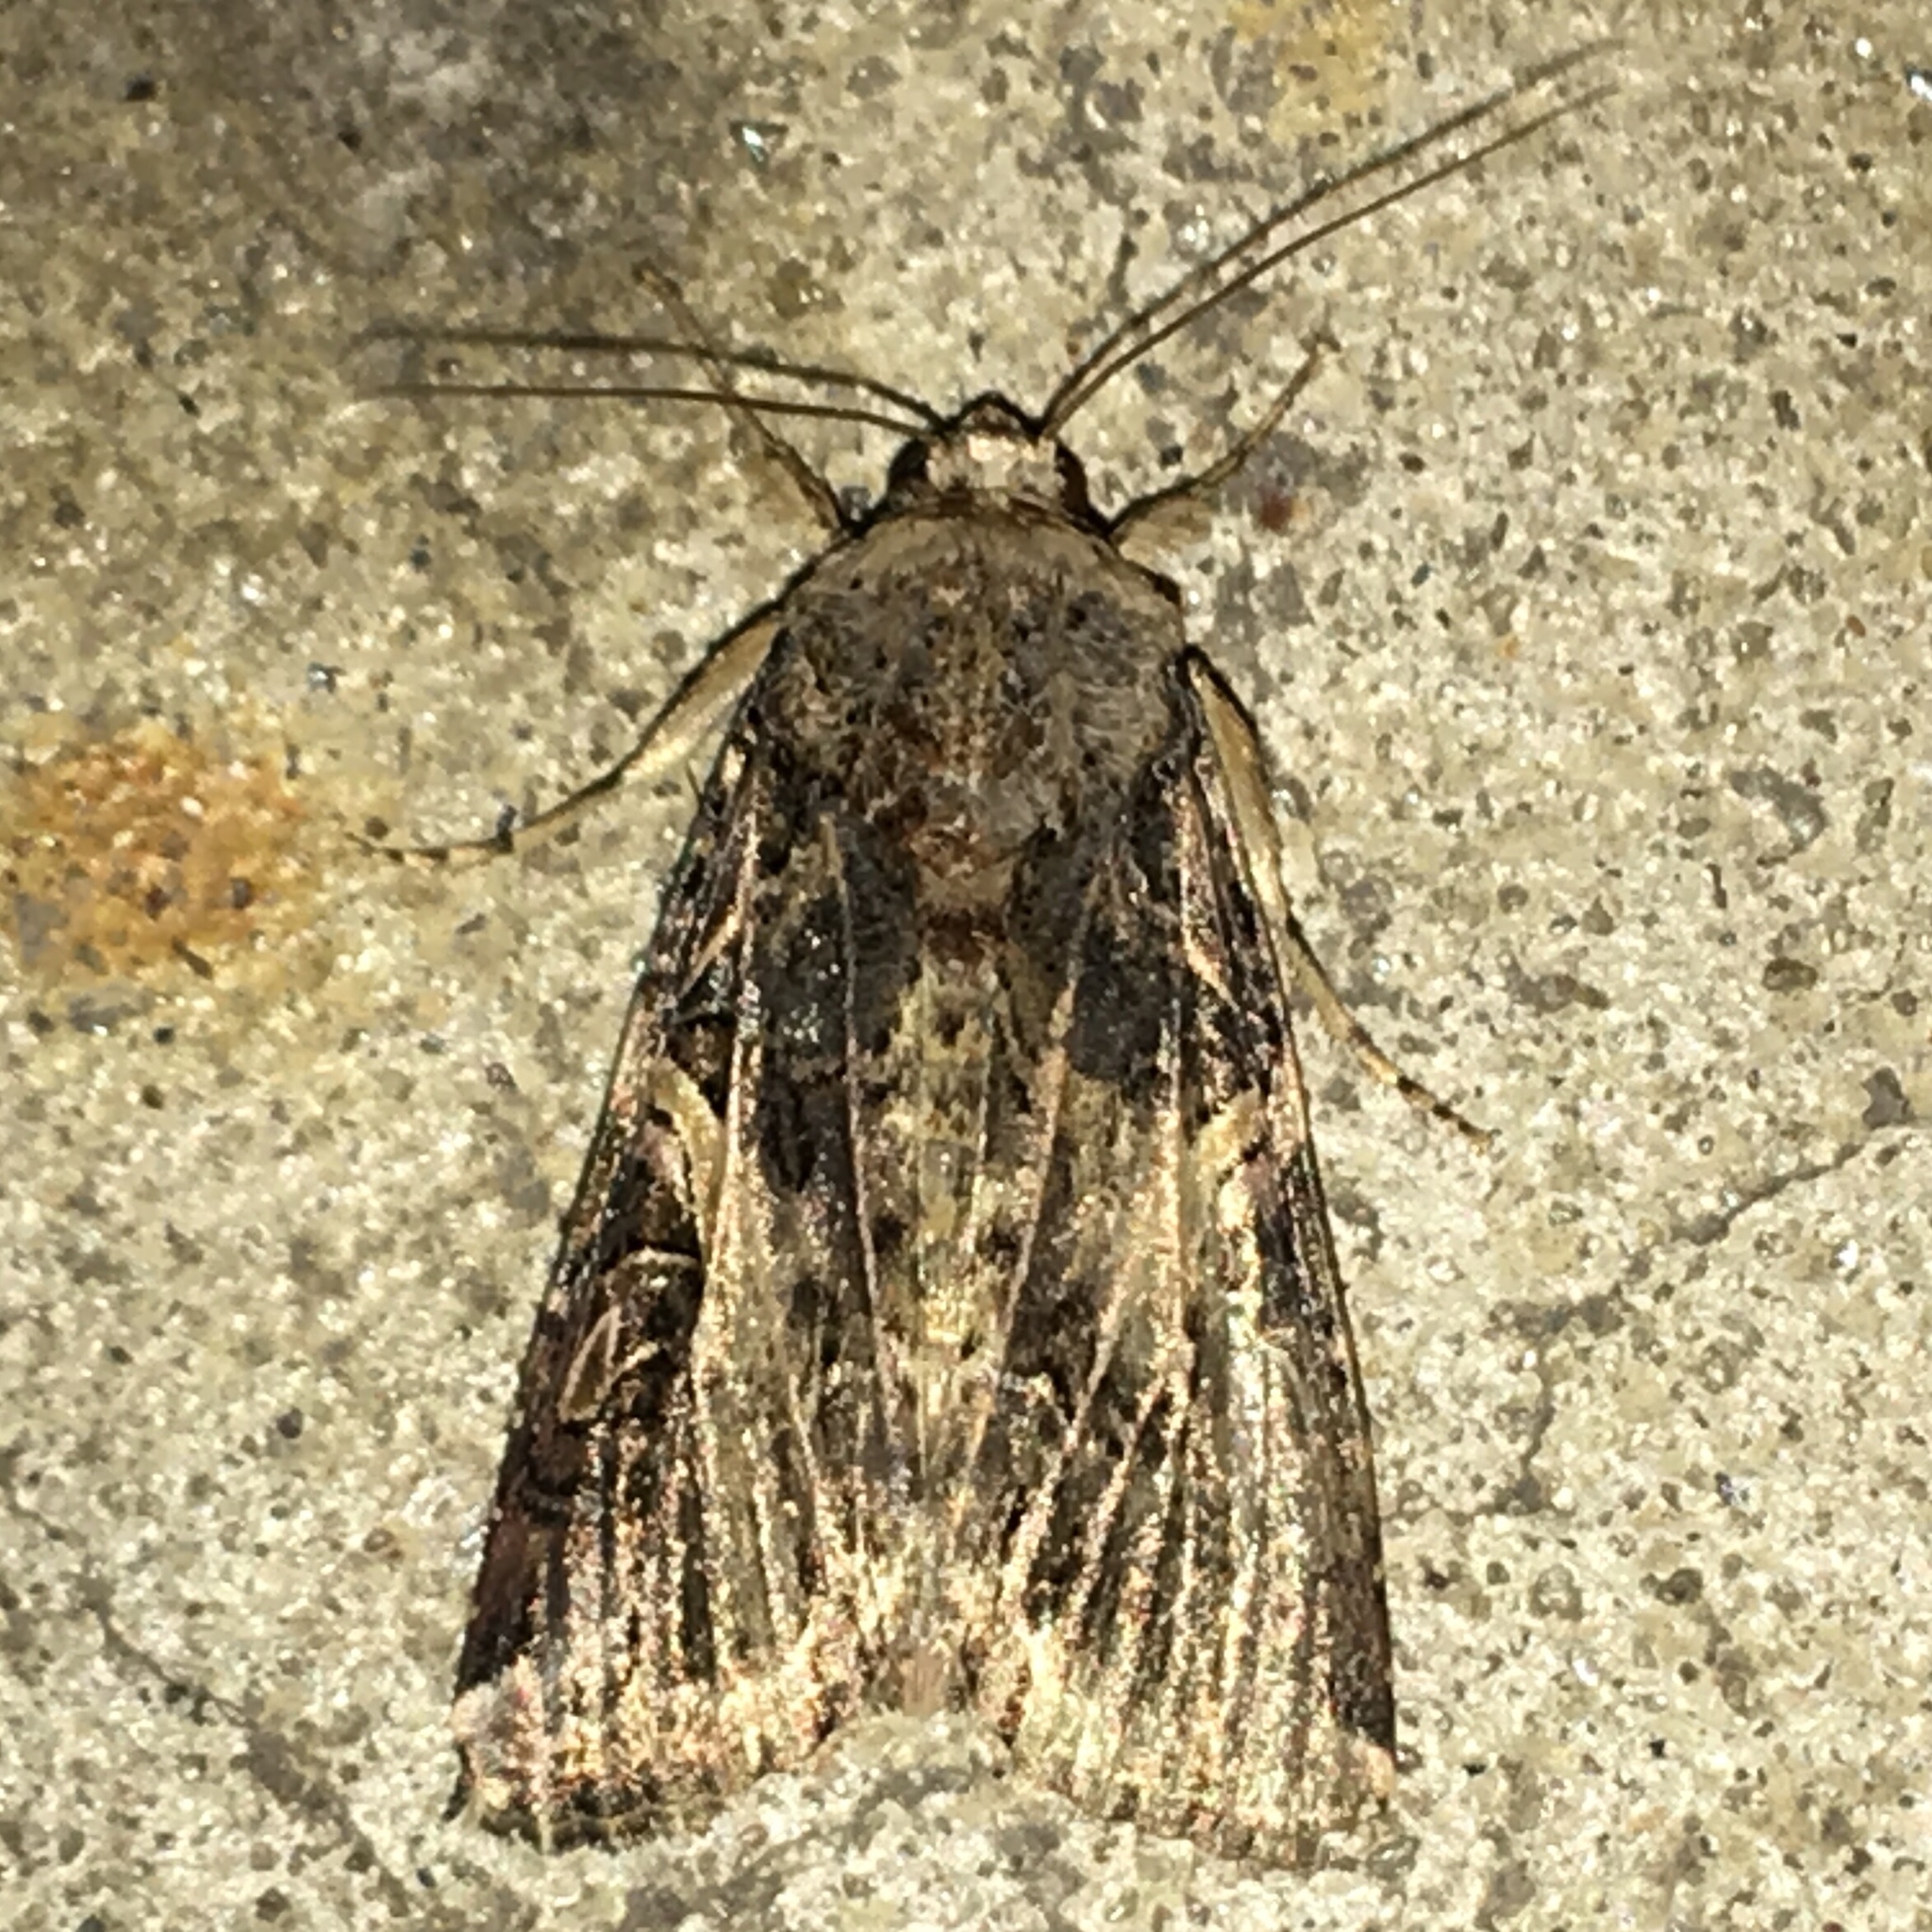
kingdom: Animalia
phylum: Arthropoda
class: Insecta
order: Lepidoptera
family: Noctuidae
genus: Spodoptera
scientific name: Spodoptera ornithogalli
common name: Yellow-striped armyworm
